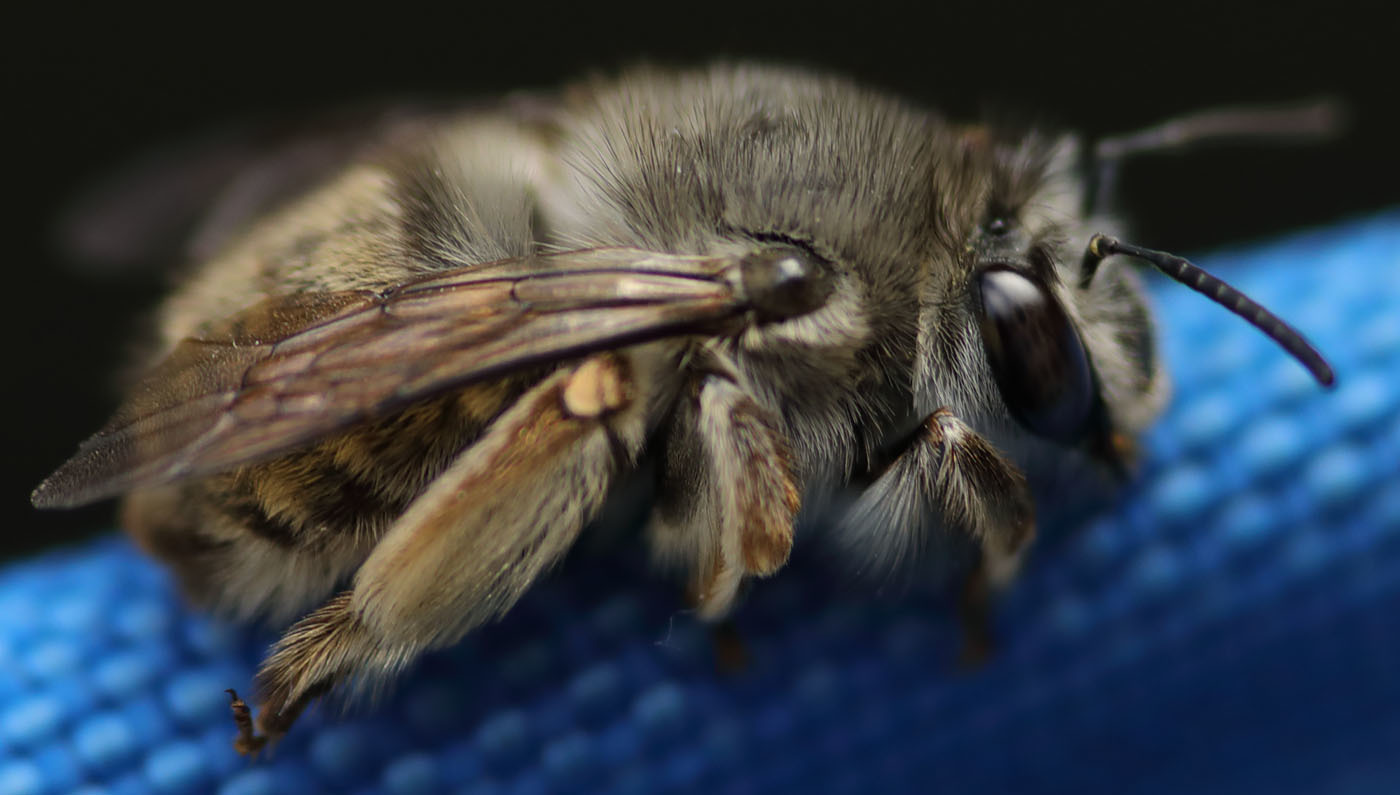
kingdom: Animalia
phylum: Arthropoda
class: Insecta
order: Hymenoptera
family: Apidae
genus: Habropoda
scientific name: Habropoda depressa
